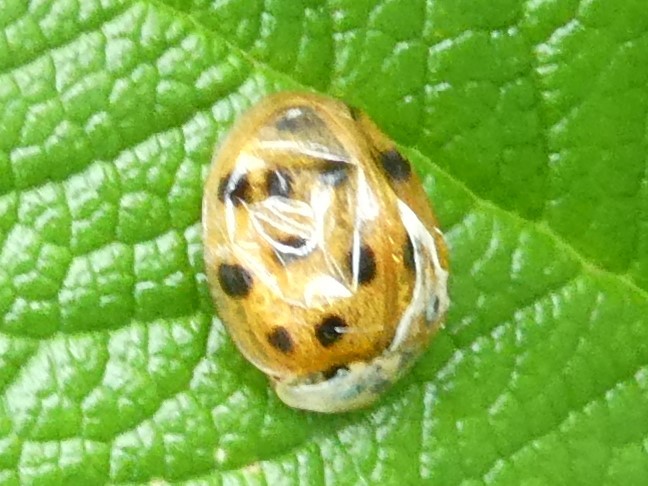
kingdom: Animalia
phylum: Arthropoda
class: Insecta
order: Coleoptera
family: Coccinellidae
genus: Harmonia
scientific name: Harmonia axyridis
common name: Harlequin ladybird
